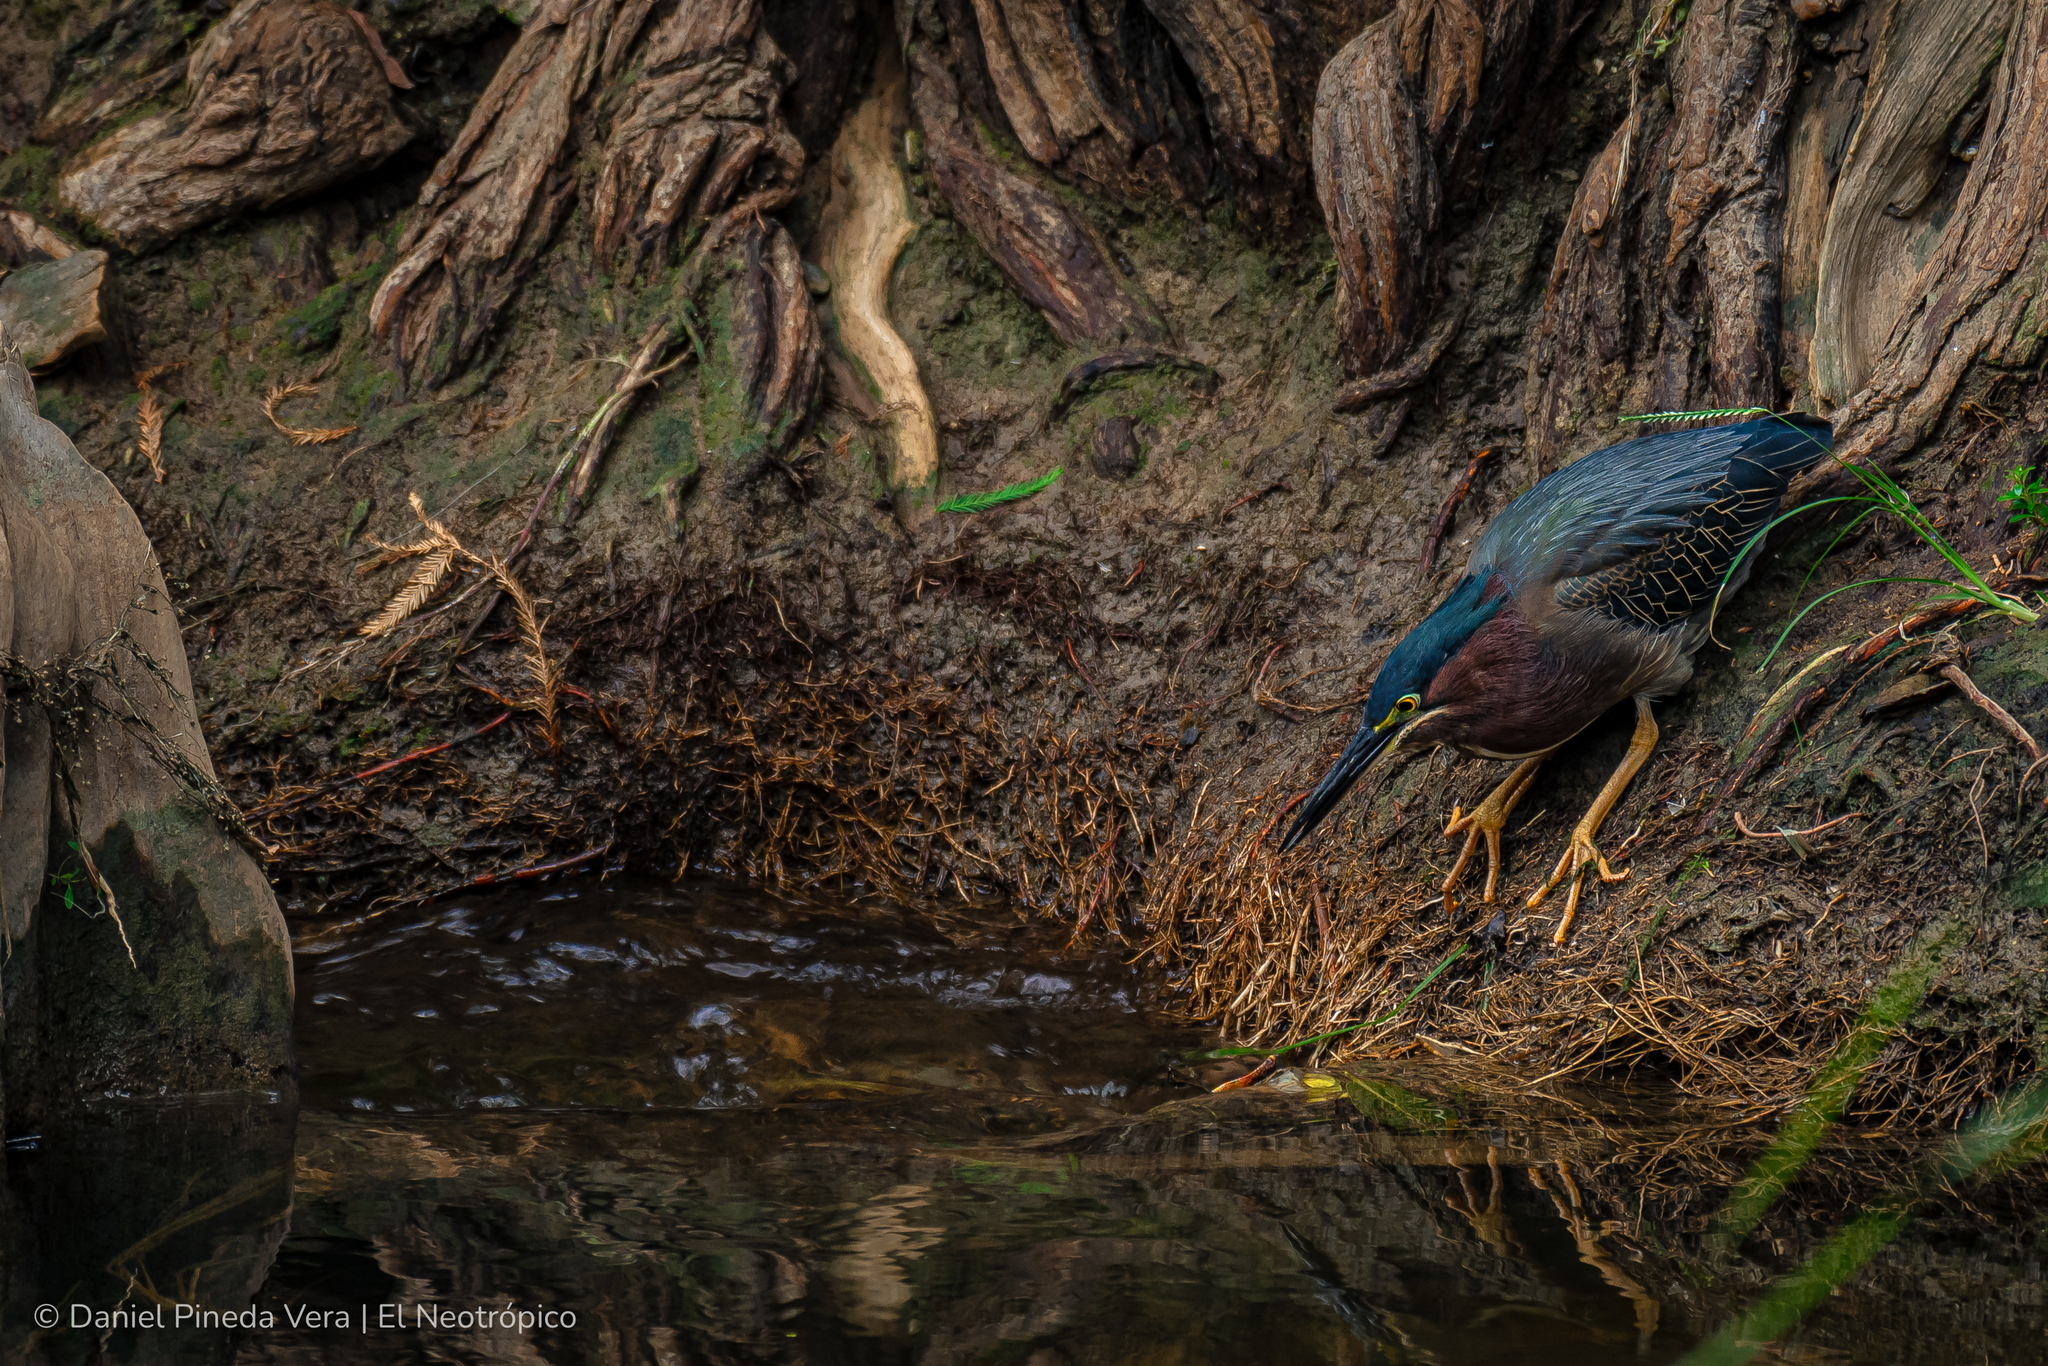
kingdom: Animalia
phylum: Chordata
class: Aves
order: Pelecaniformes
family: Ardeidae
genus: Butorides
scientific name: Butorides virescens
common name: Green heron
